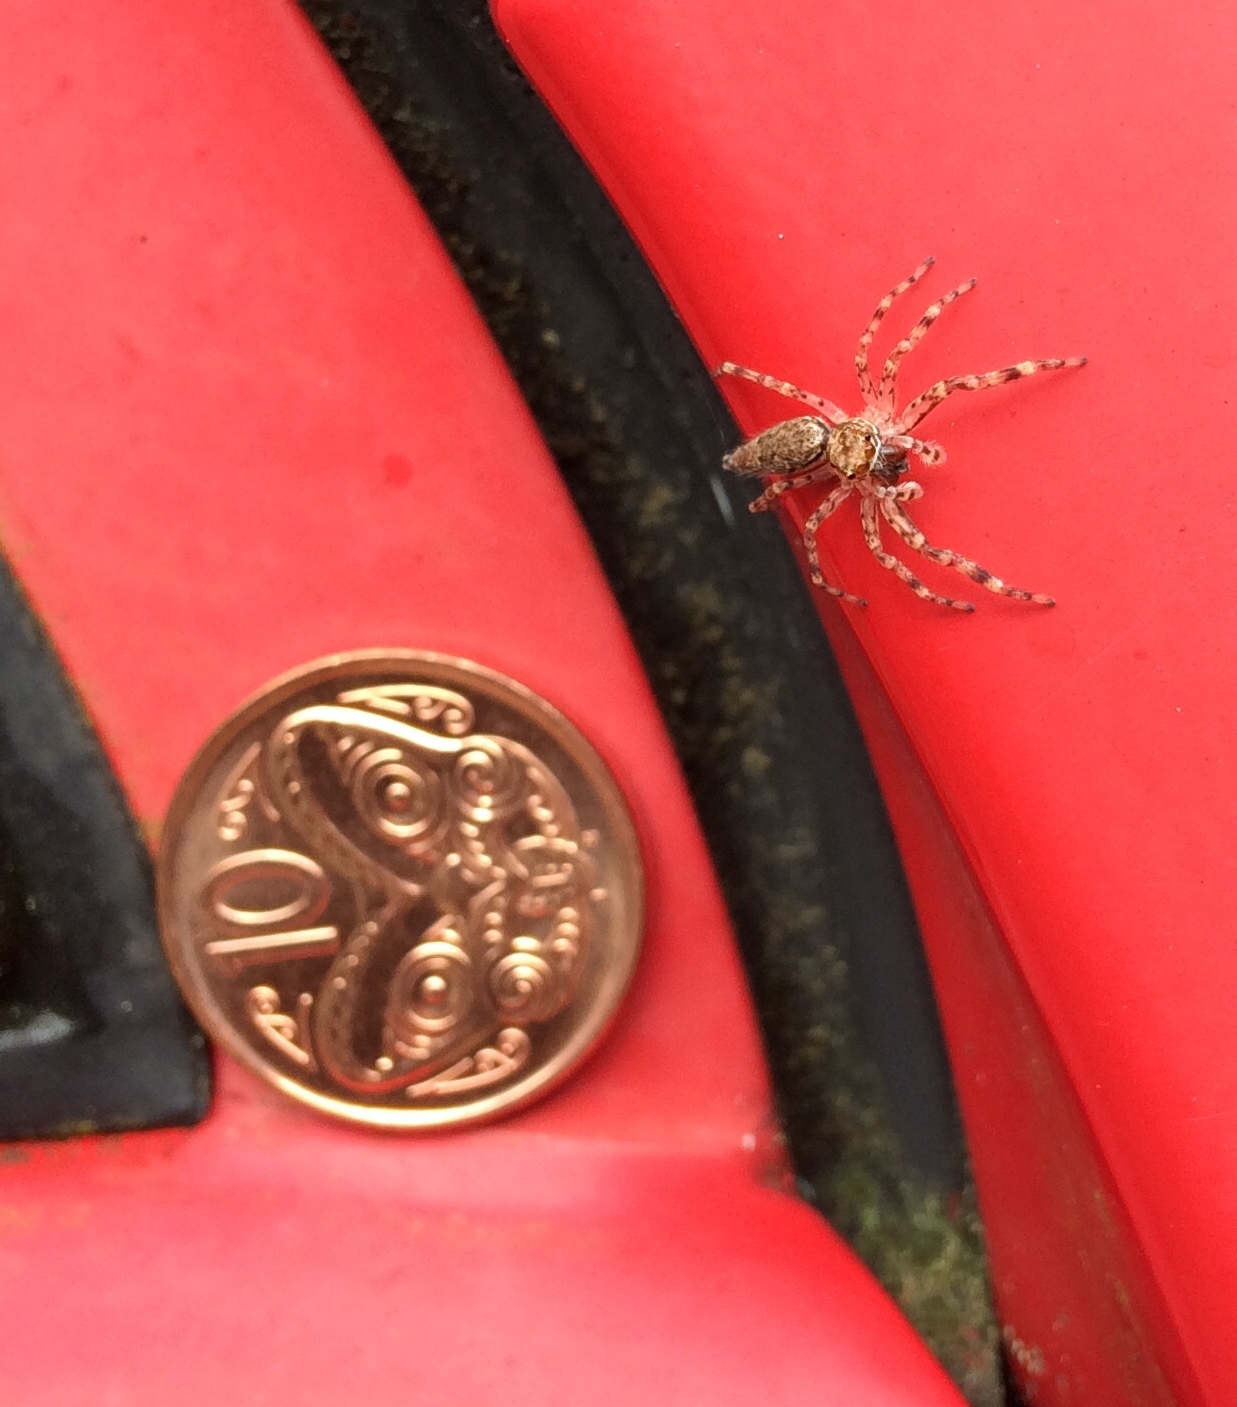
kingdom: Animalia
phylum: Arthropoda
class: Arachnida
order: Araneae
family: Salticidae
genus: Helpis
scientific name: Helpis minitabunda
